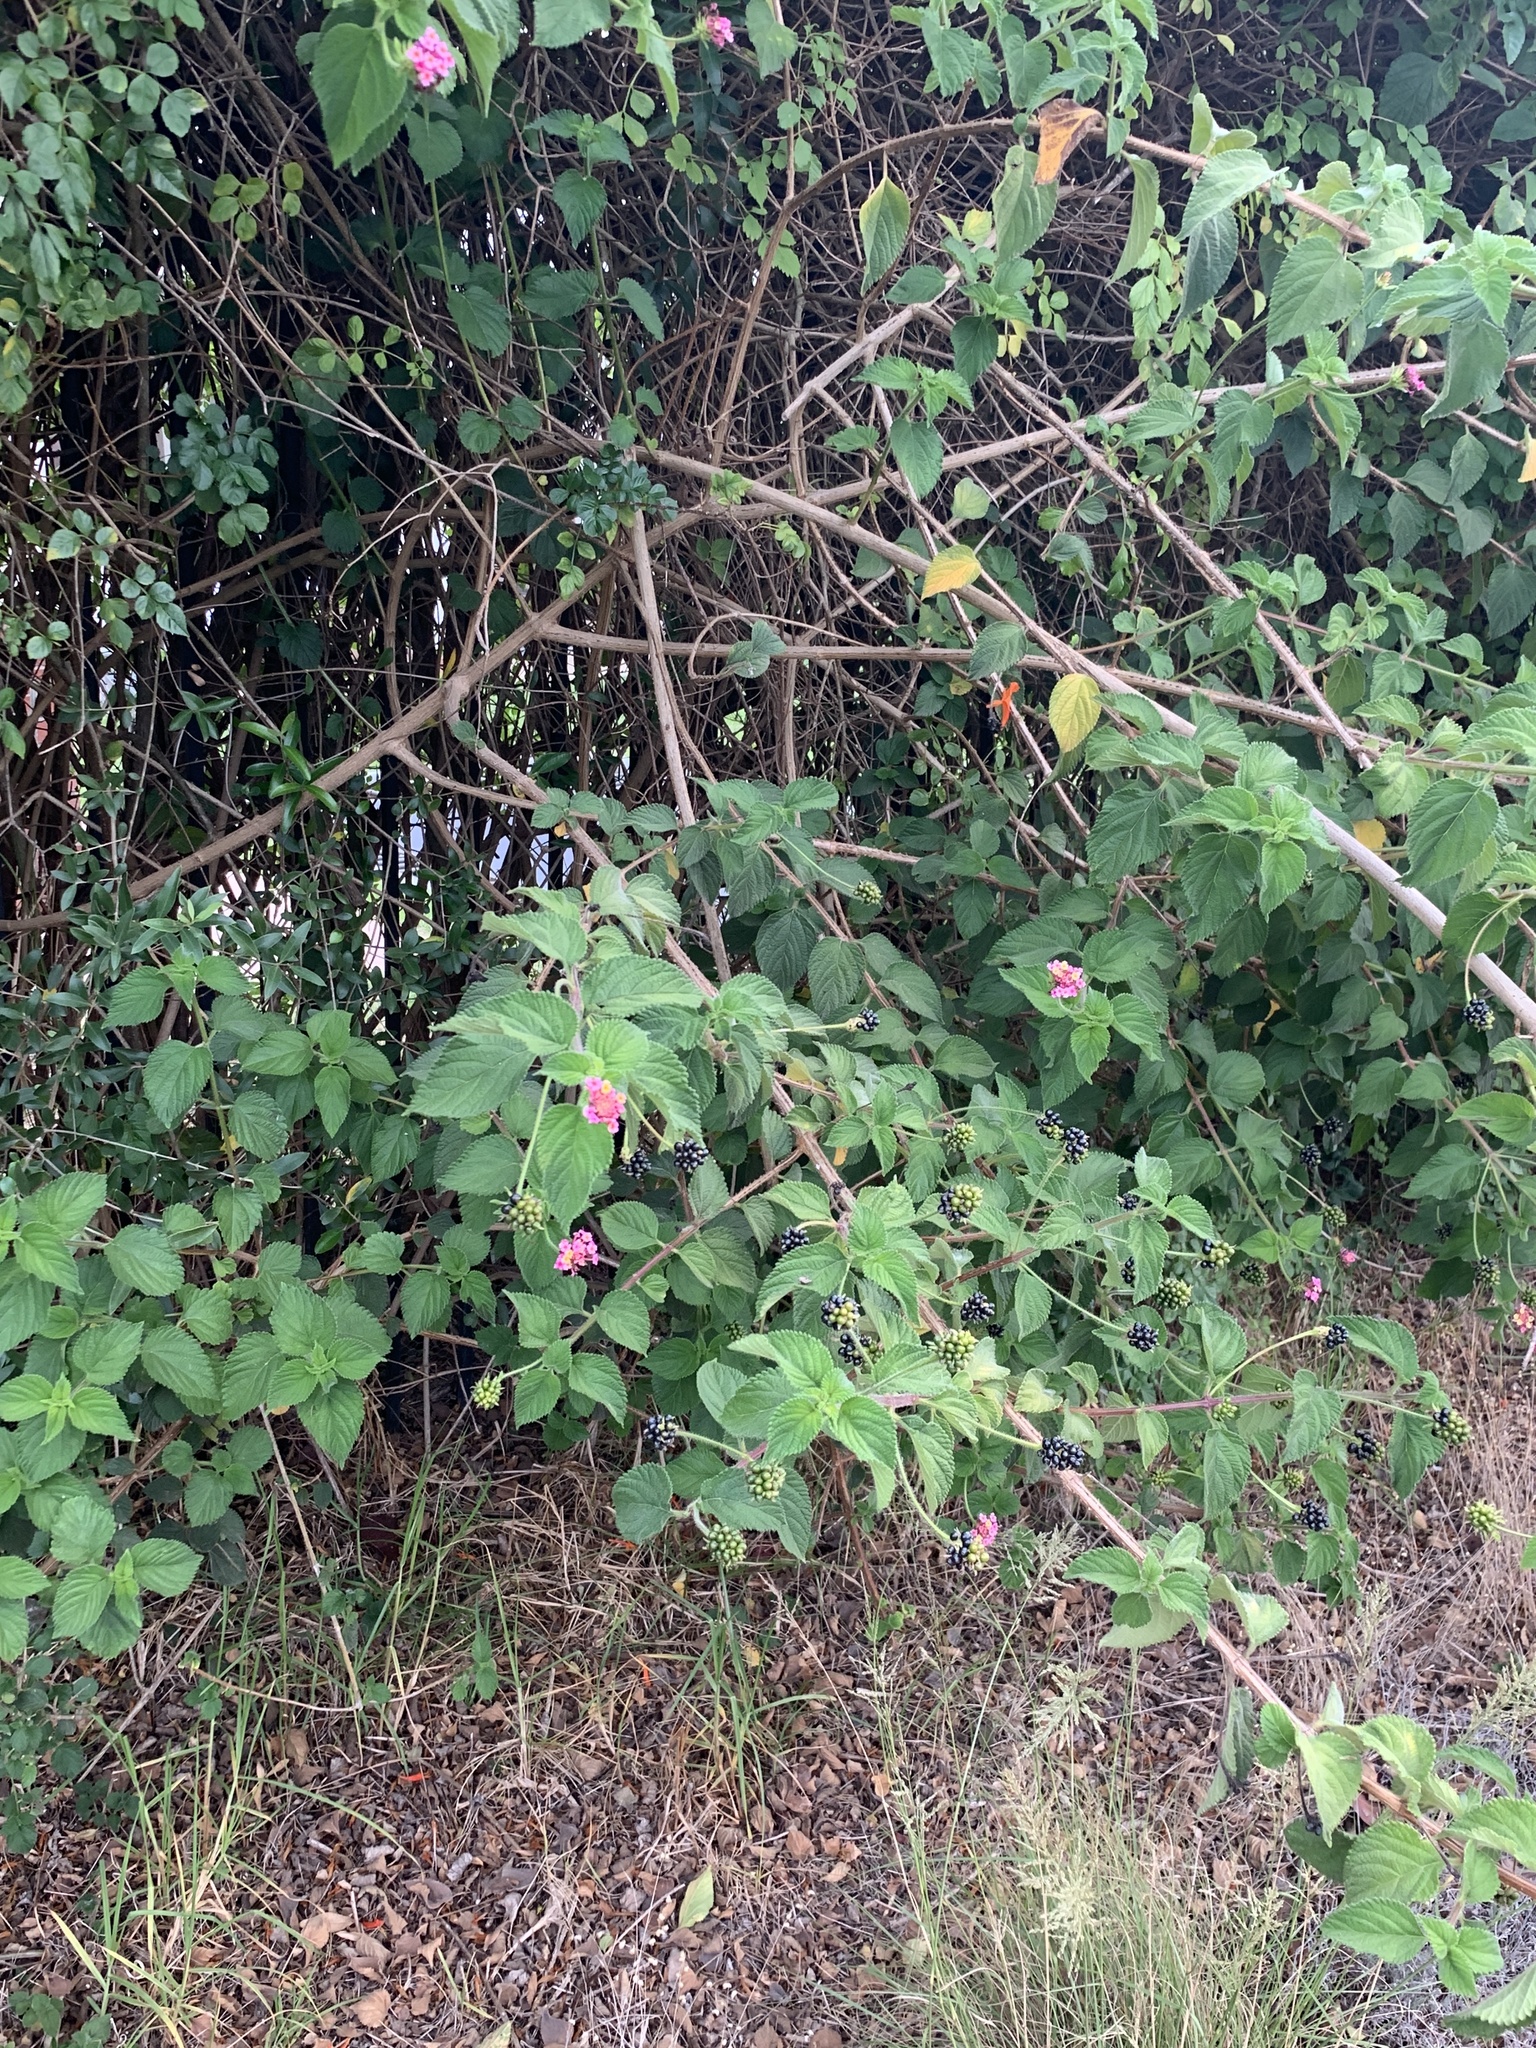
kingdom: Plantae
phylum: Tracheophyta
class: Magnoliopsida
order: Lamiales
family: Verbenaceae
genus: Lantana
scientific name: Lantana camara
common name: Lantana
